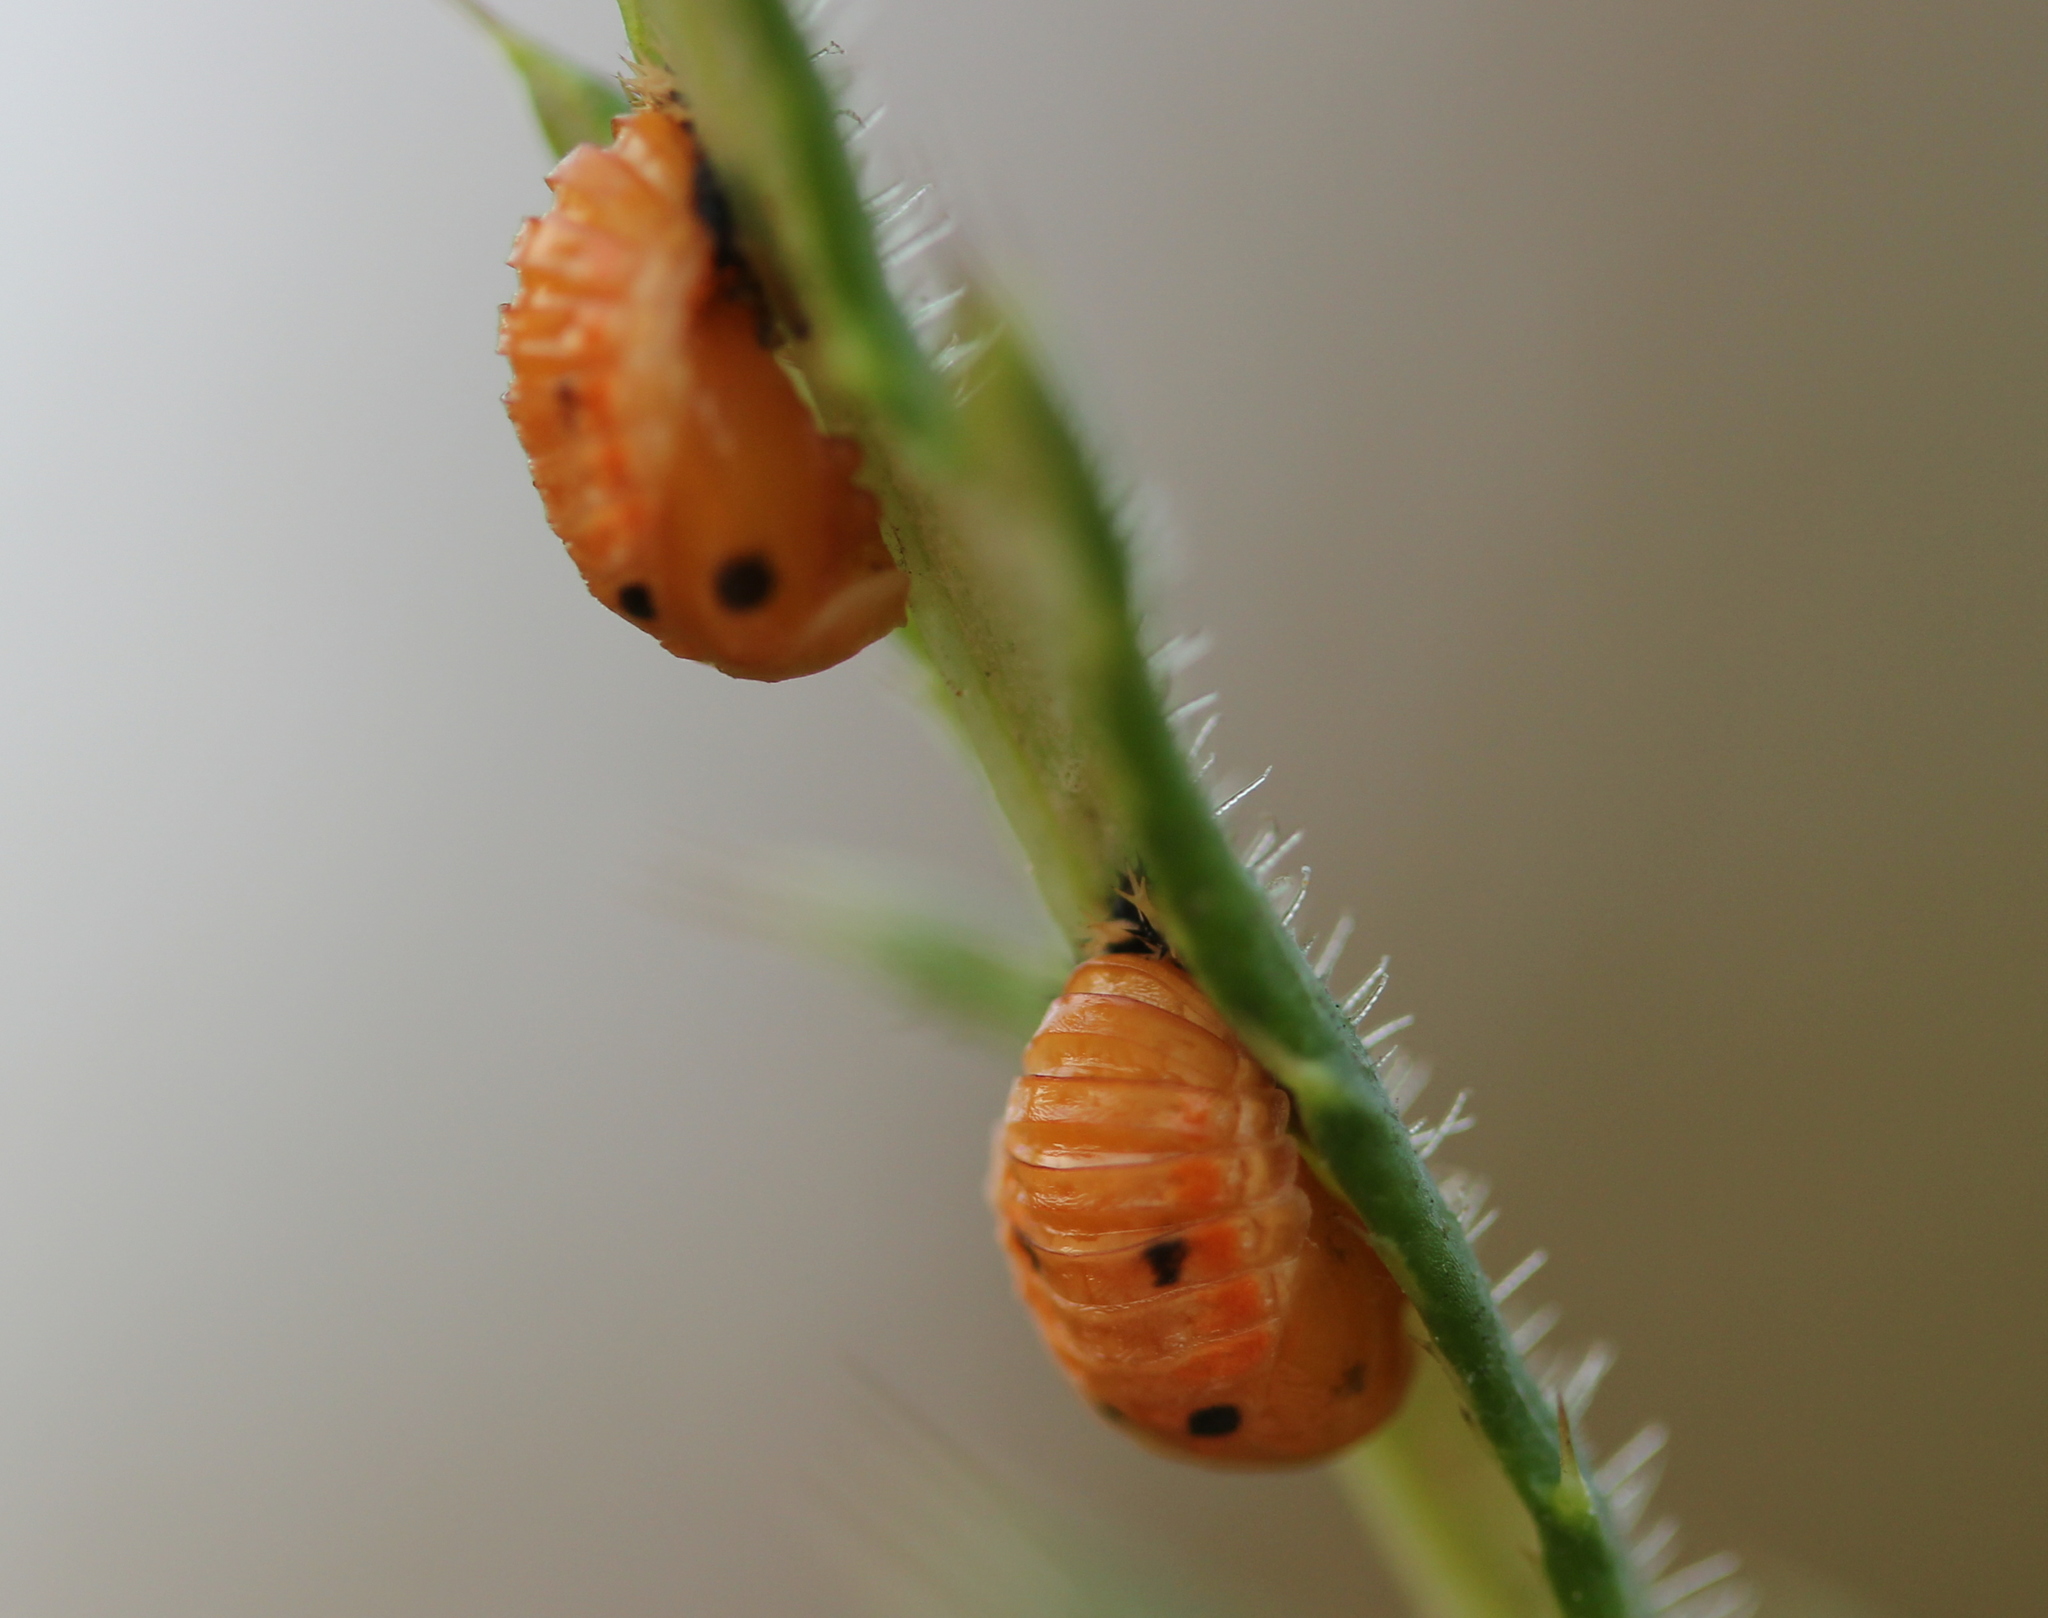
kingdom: Animalia
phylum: Arthropoda
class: Insecta
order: Coleoptera
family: Coccinellidae
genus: Harmonia
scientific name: Harmonia axyridis
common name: Harlequin ladybird
